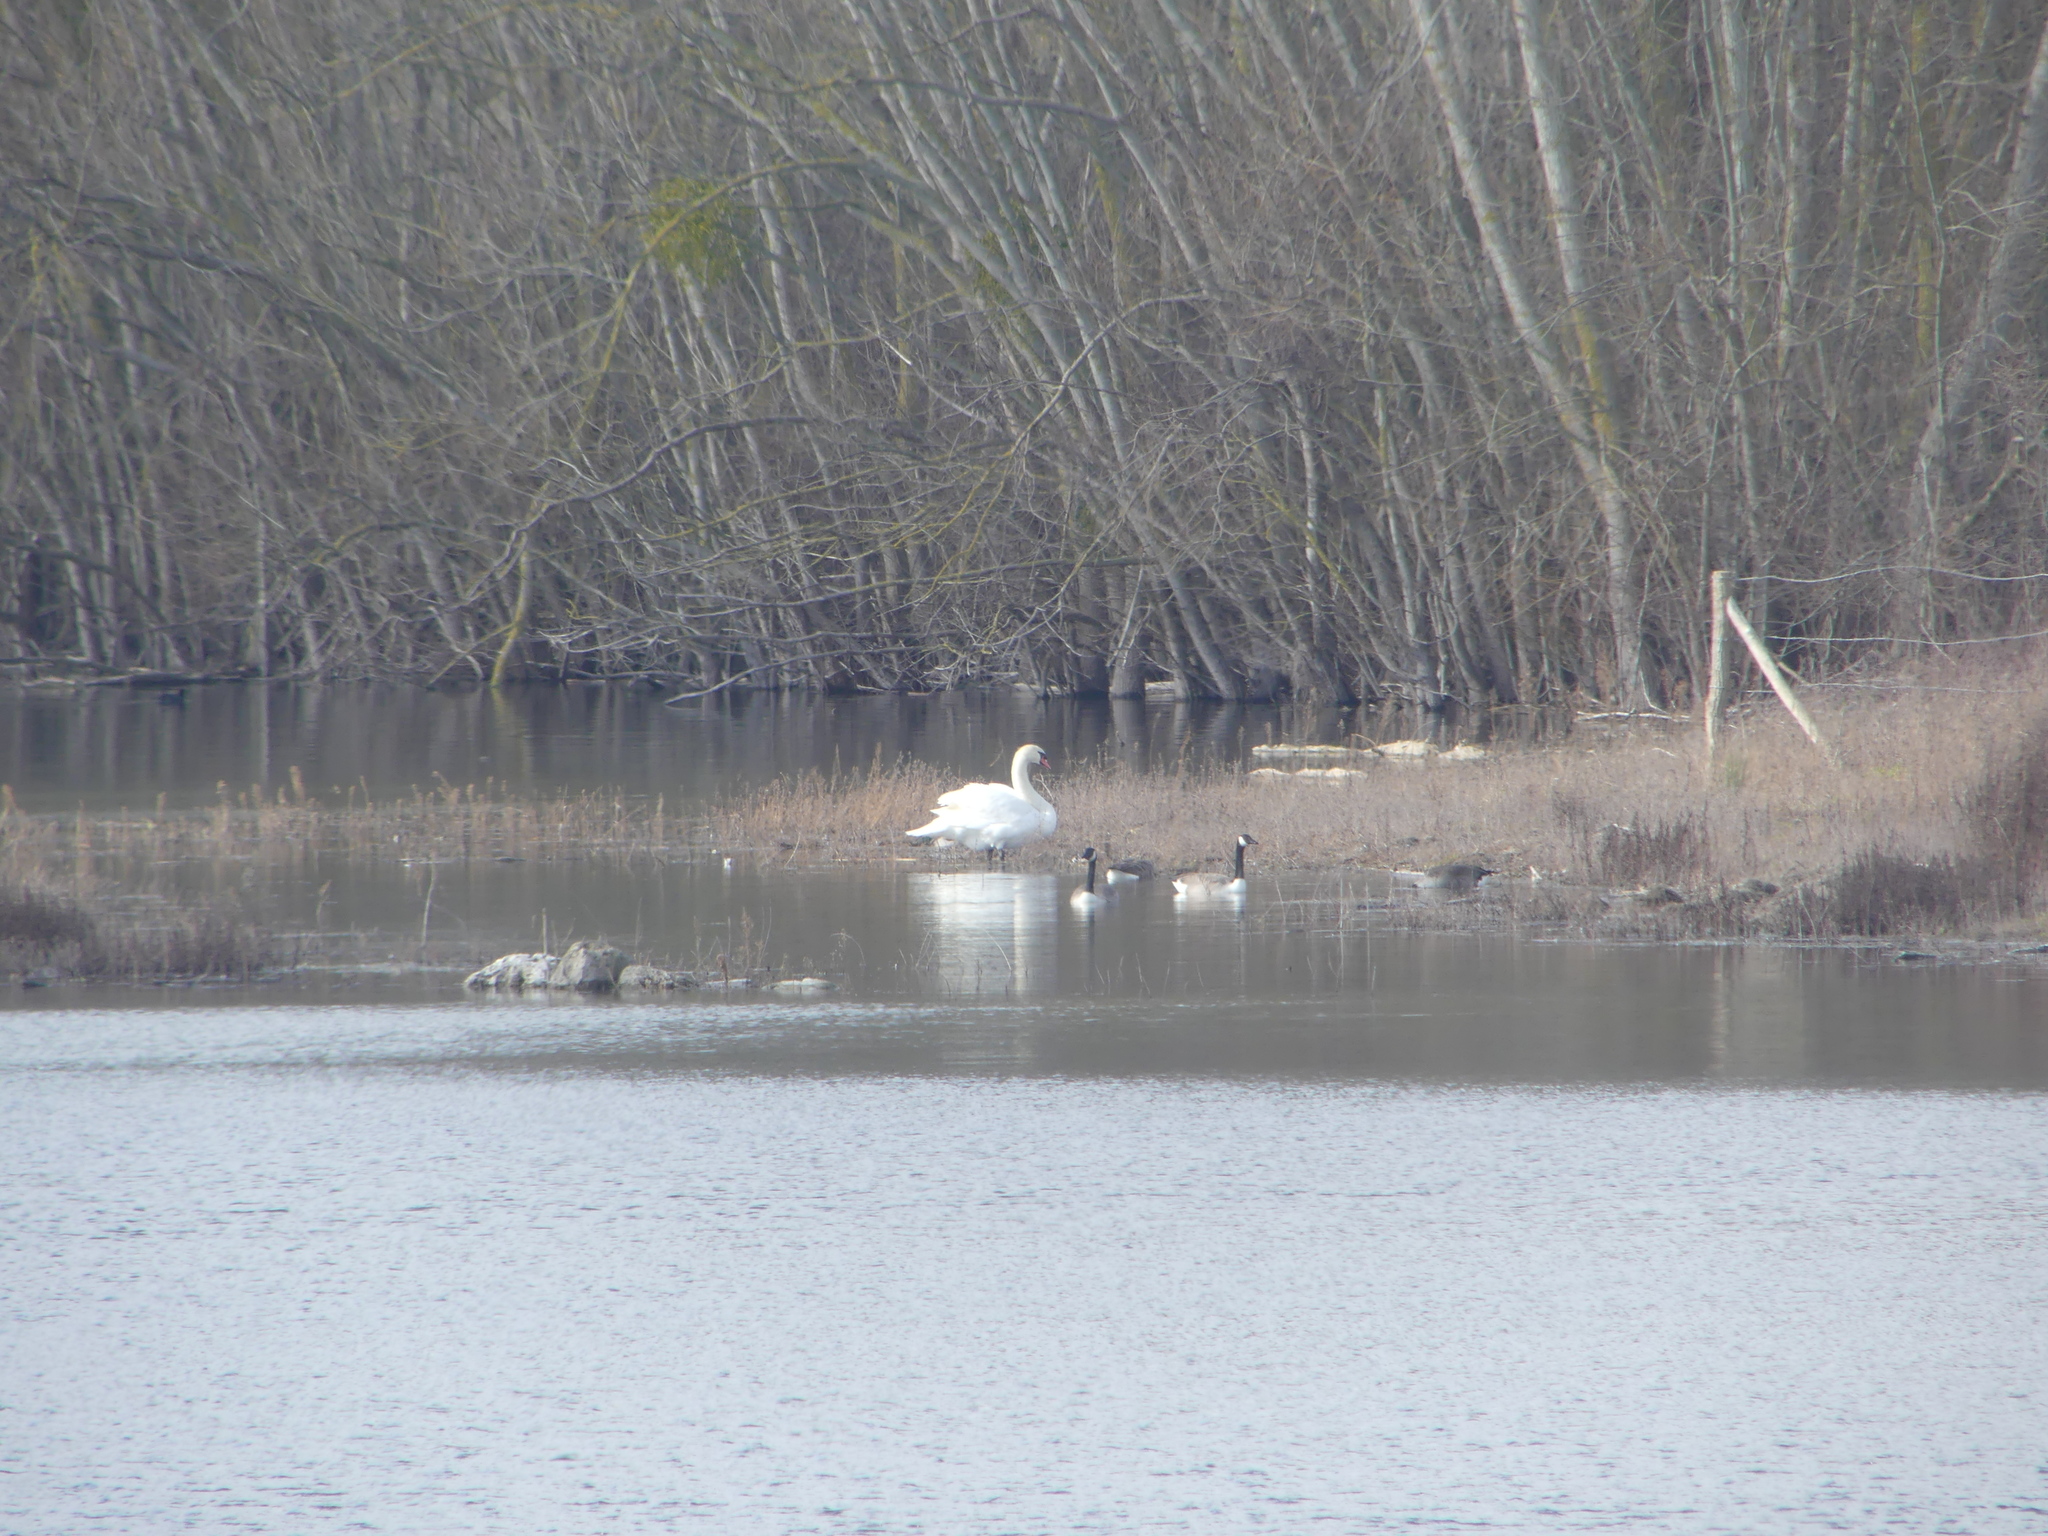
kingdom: Animalia
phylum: Chordata
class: Aves
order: Anseriformes
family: Anatidae
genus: Cygnus
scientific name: Cygnus olor
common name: Mute swan
